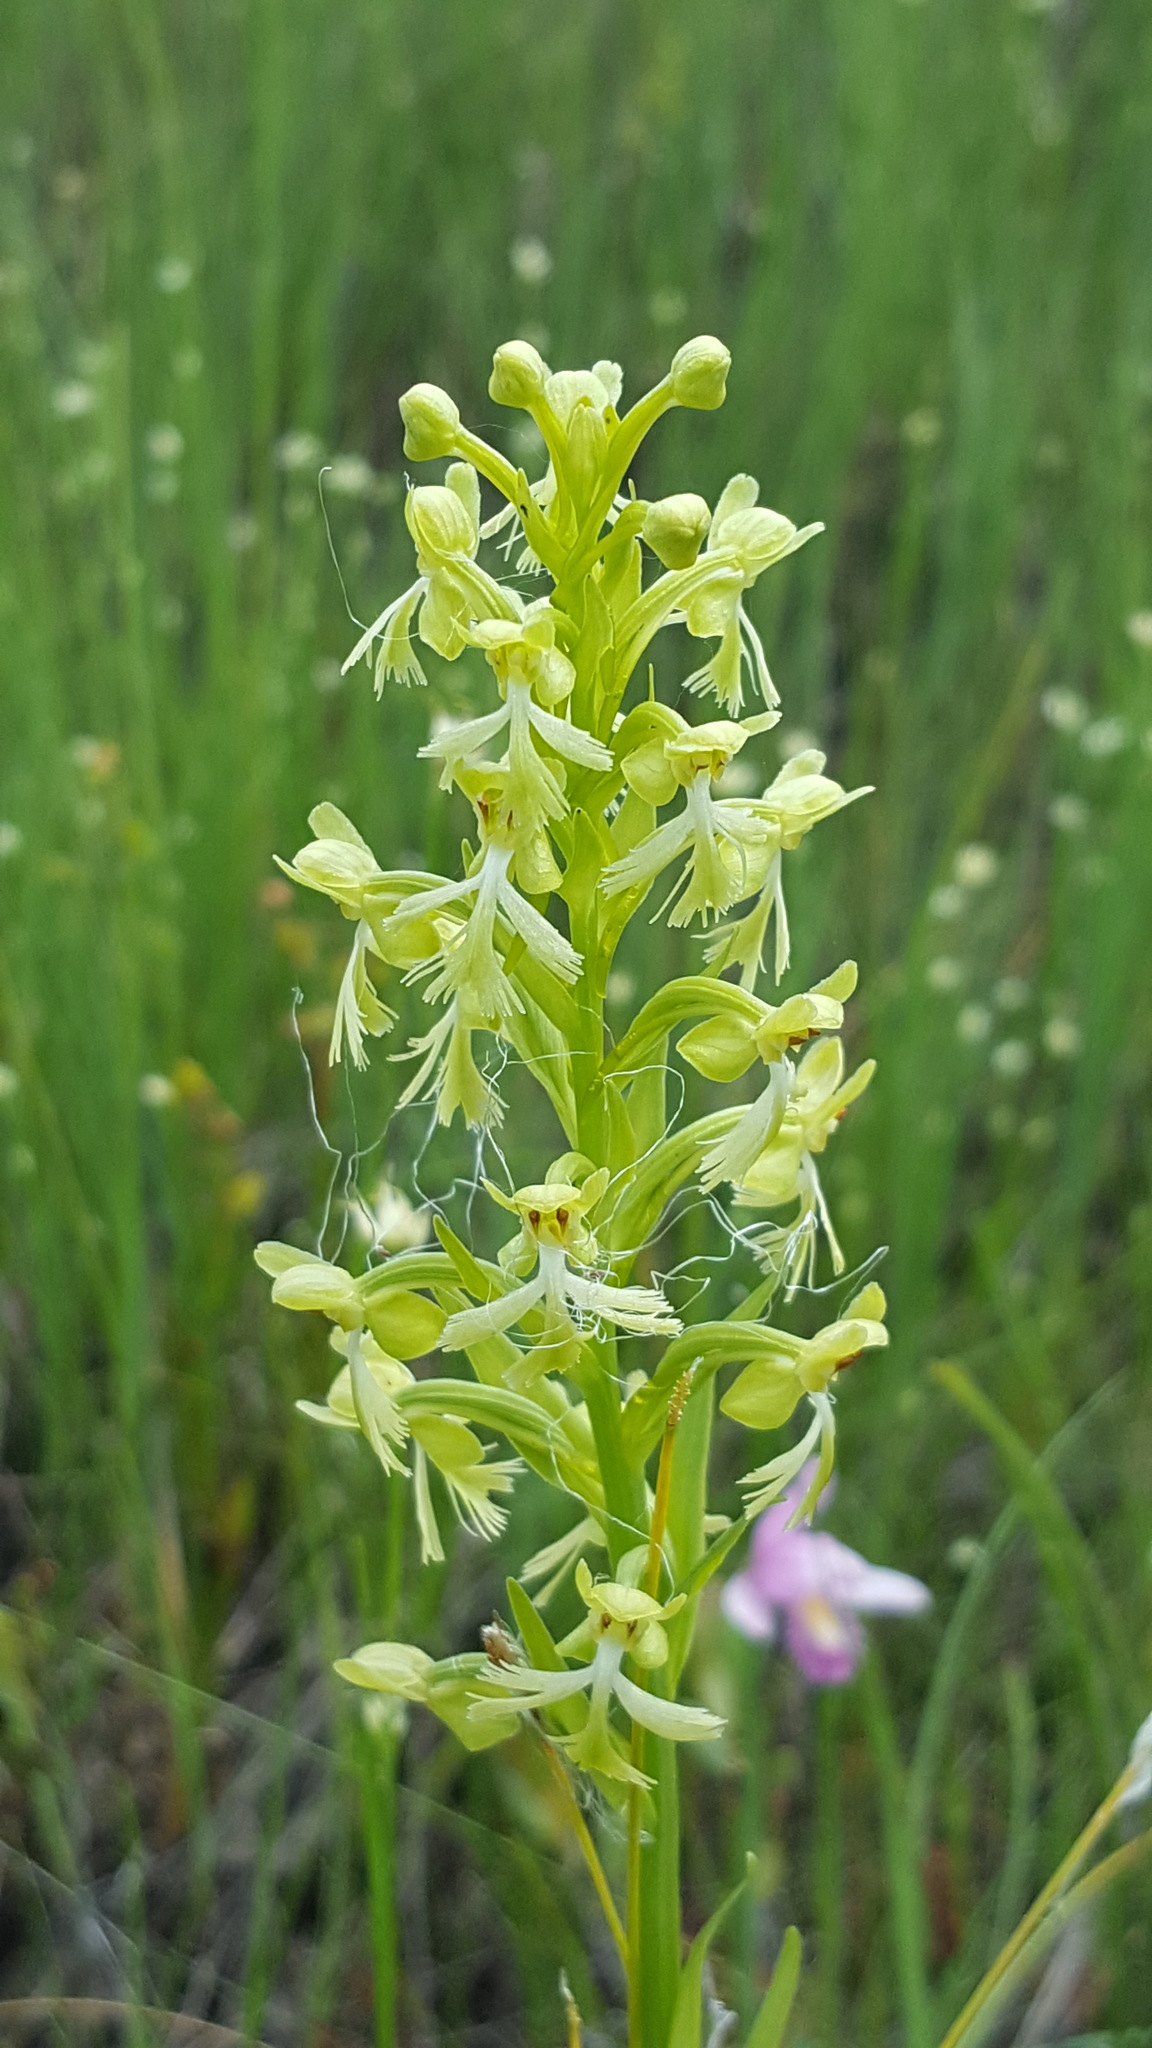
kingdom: Plantae
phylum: Tracheophyta
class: Liliopsida
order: Asparagales
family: Orchidaceae
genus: Platanthera
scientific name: Platanthera lacera
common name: Green fringed orchid
